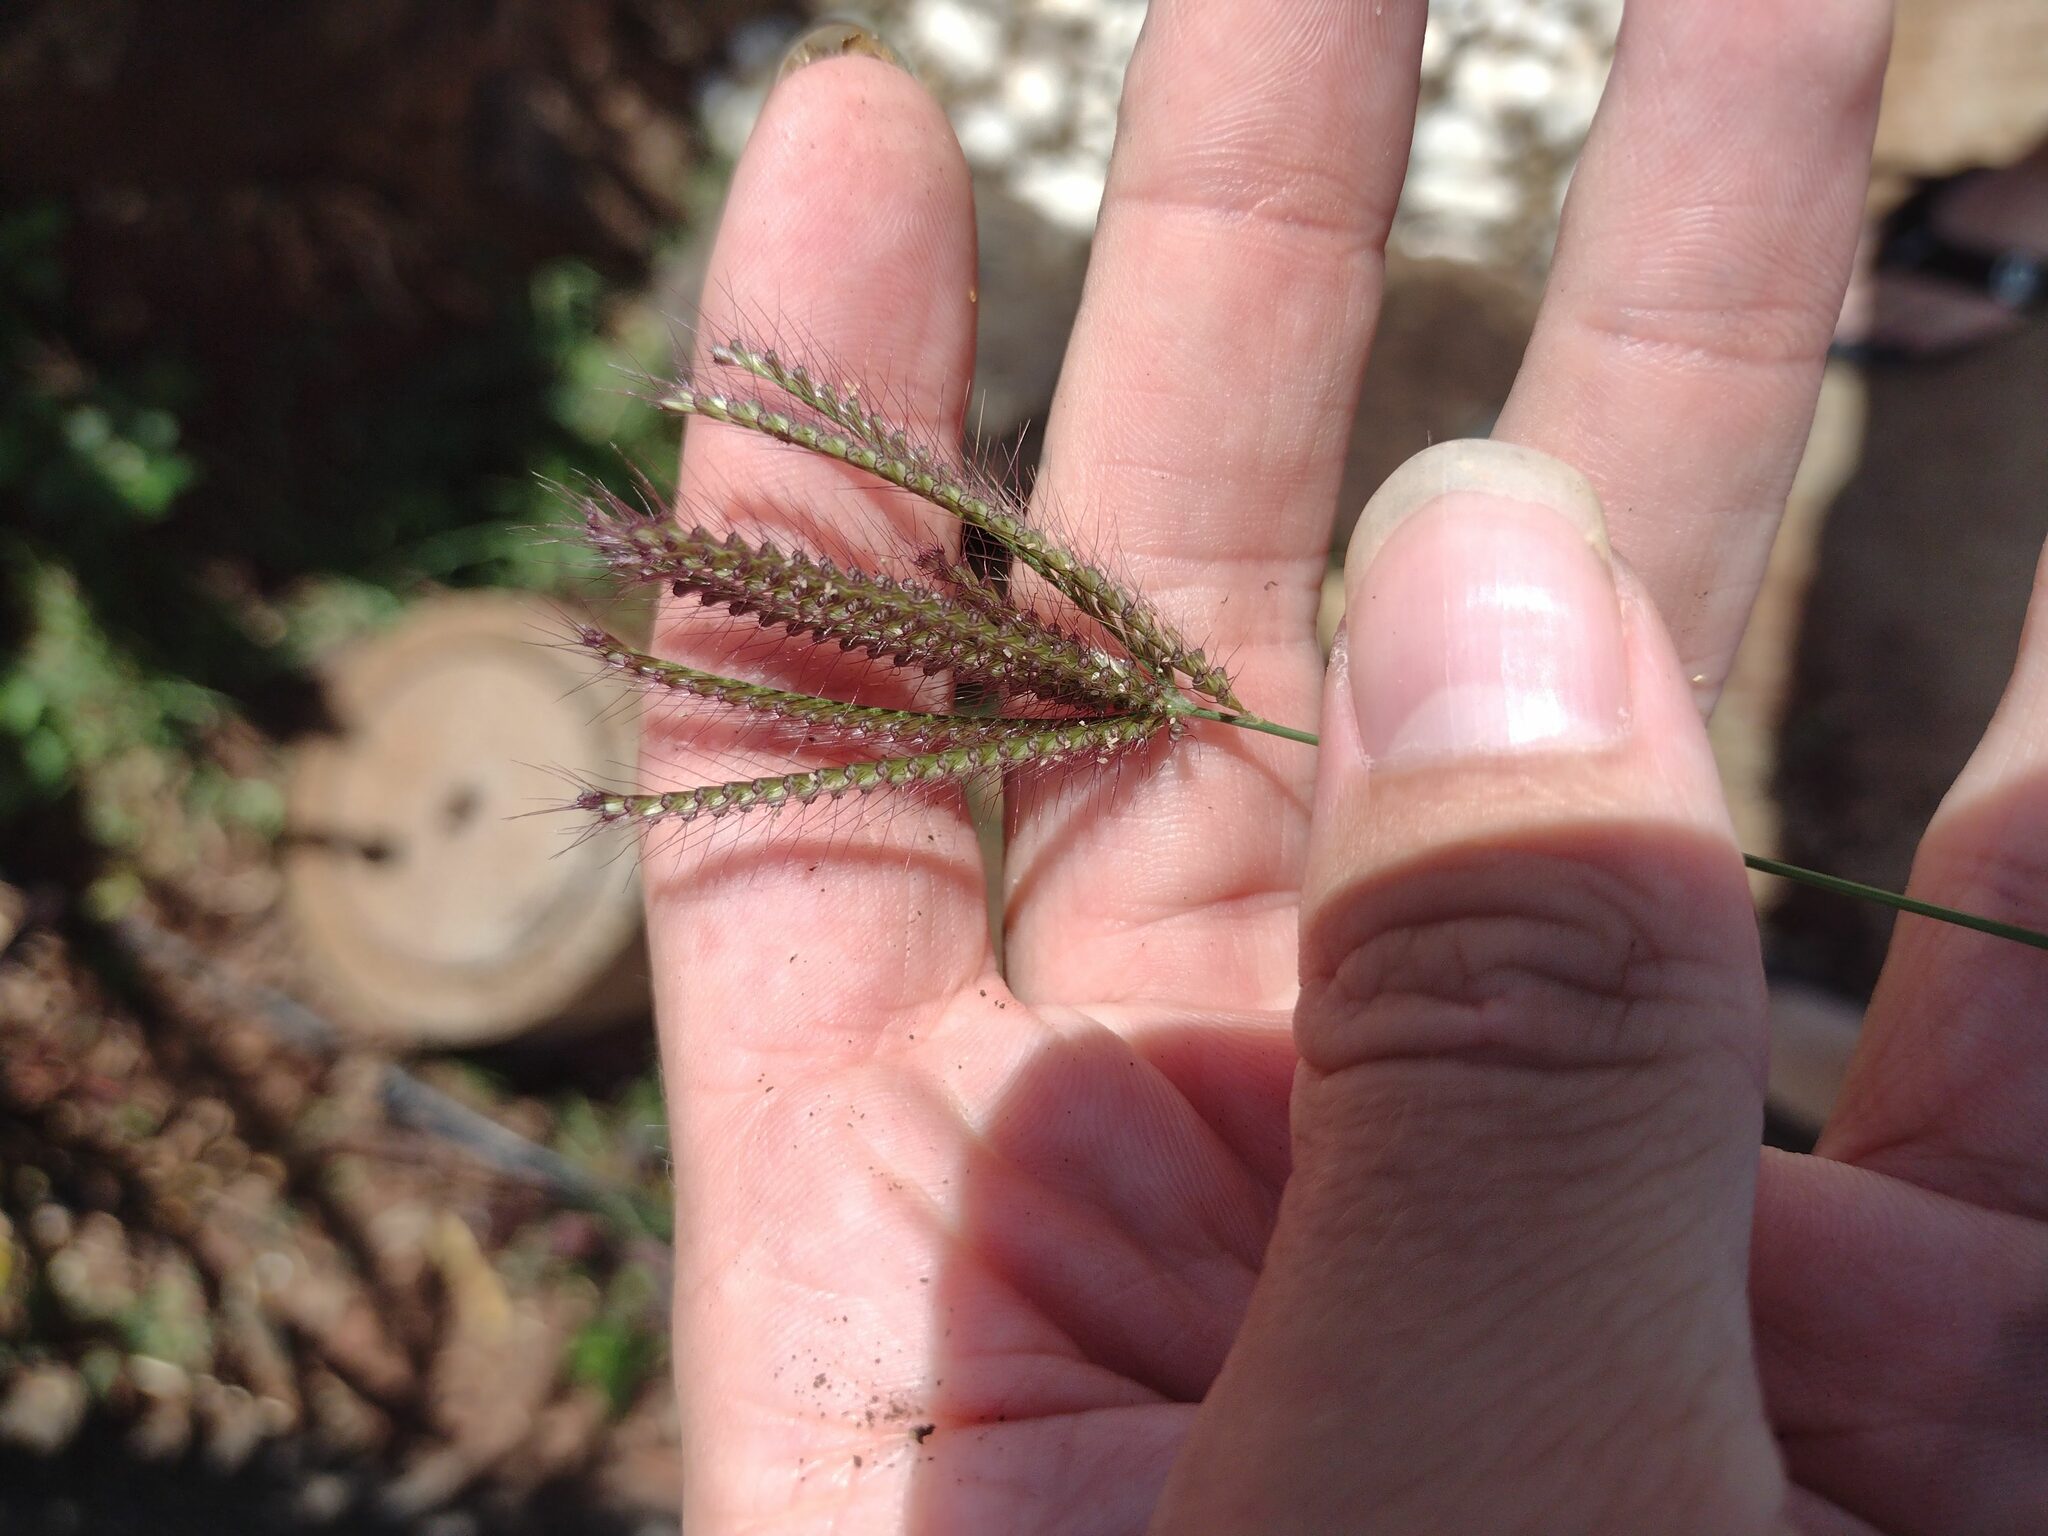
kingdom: Plantae
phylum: Tracheophyta
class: Liliopsida
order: Poales
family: Poaceae
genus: Chloris
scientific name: Chloris barbata
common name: Swollen fingergrass
